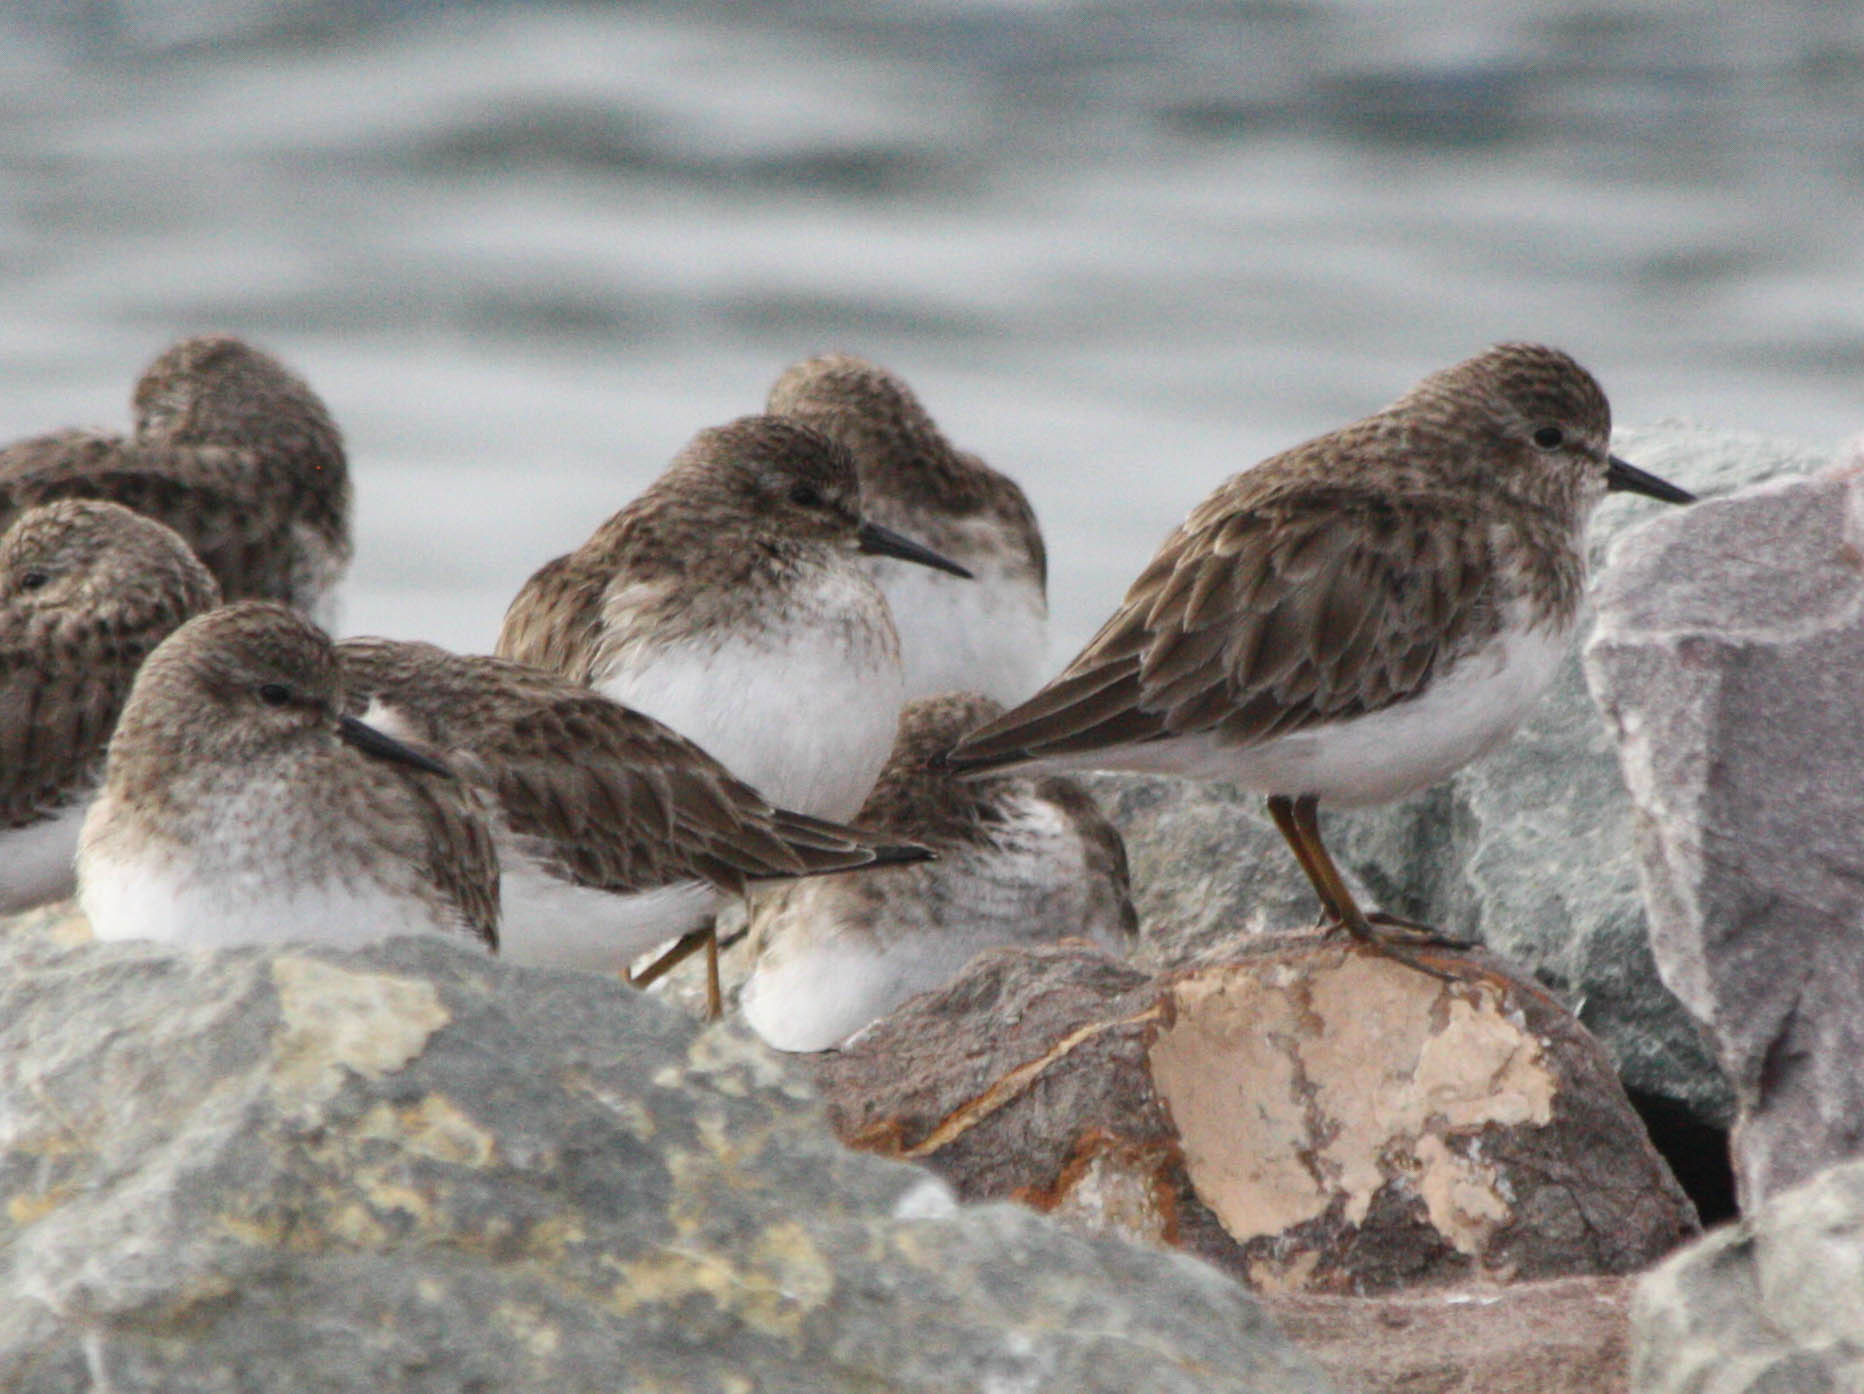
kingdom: Animalia
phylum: Chordata
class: Aves
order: Charadriiformes
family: Scolopacidae
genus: Calidris
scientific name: Calidris minutilla
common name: Least sandpiper
